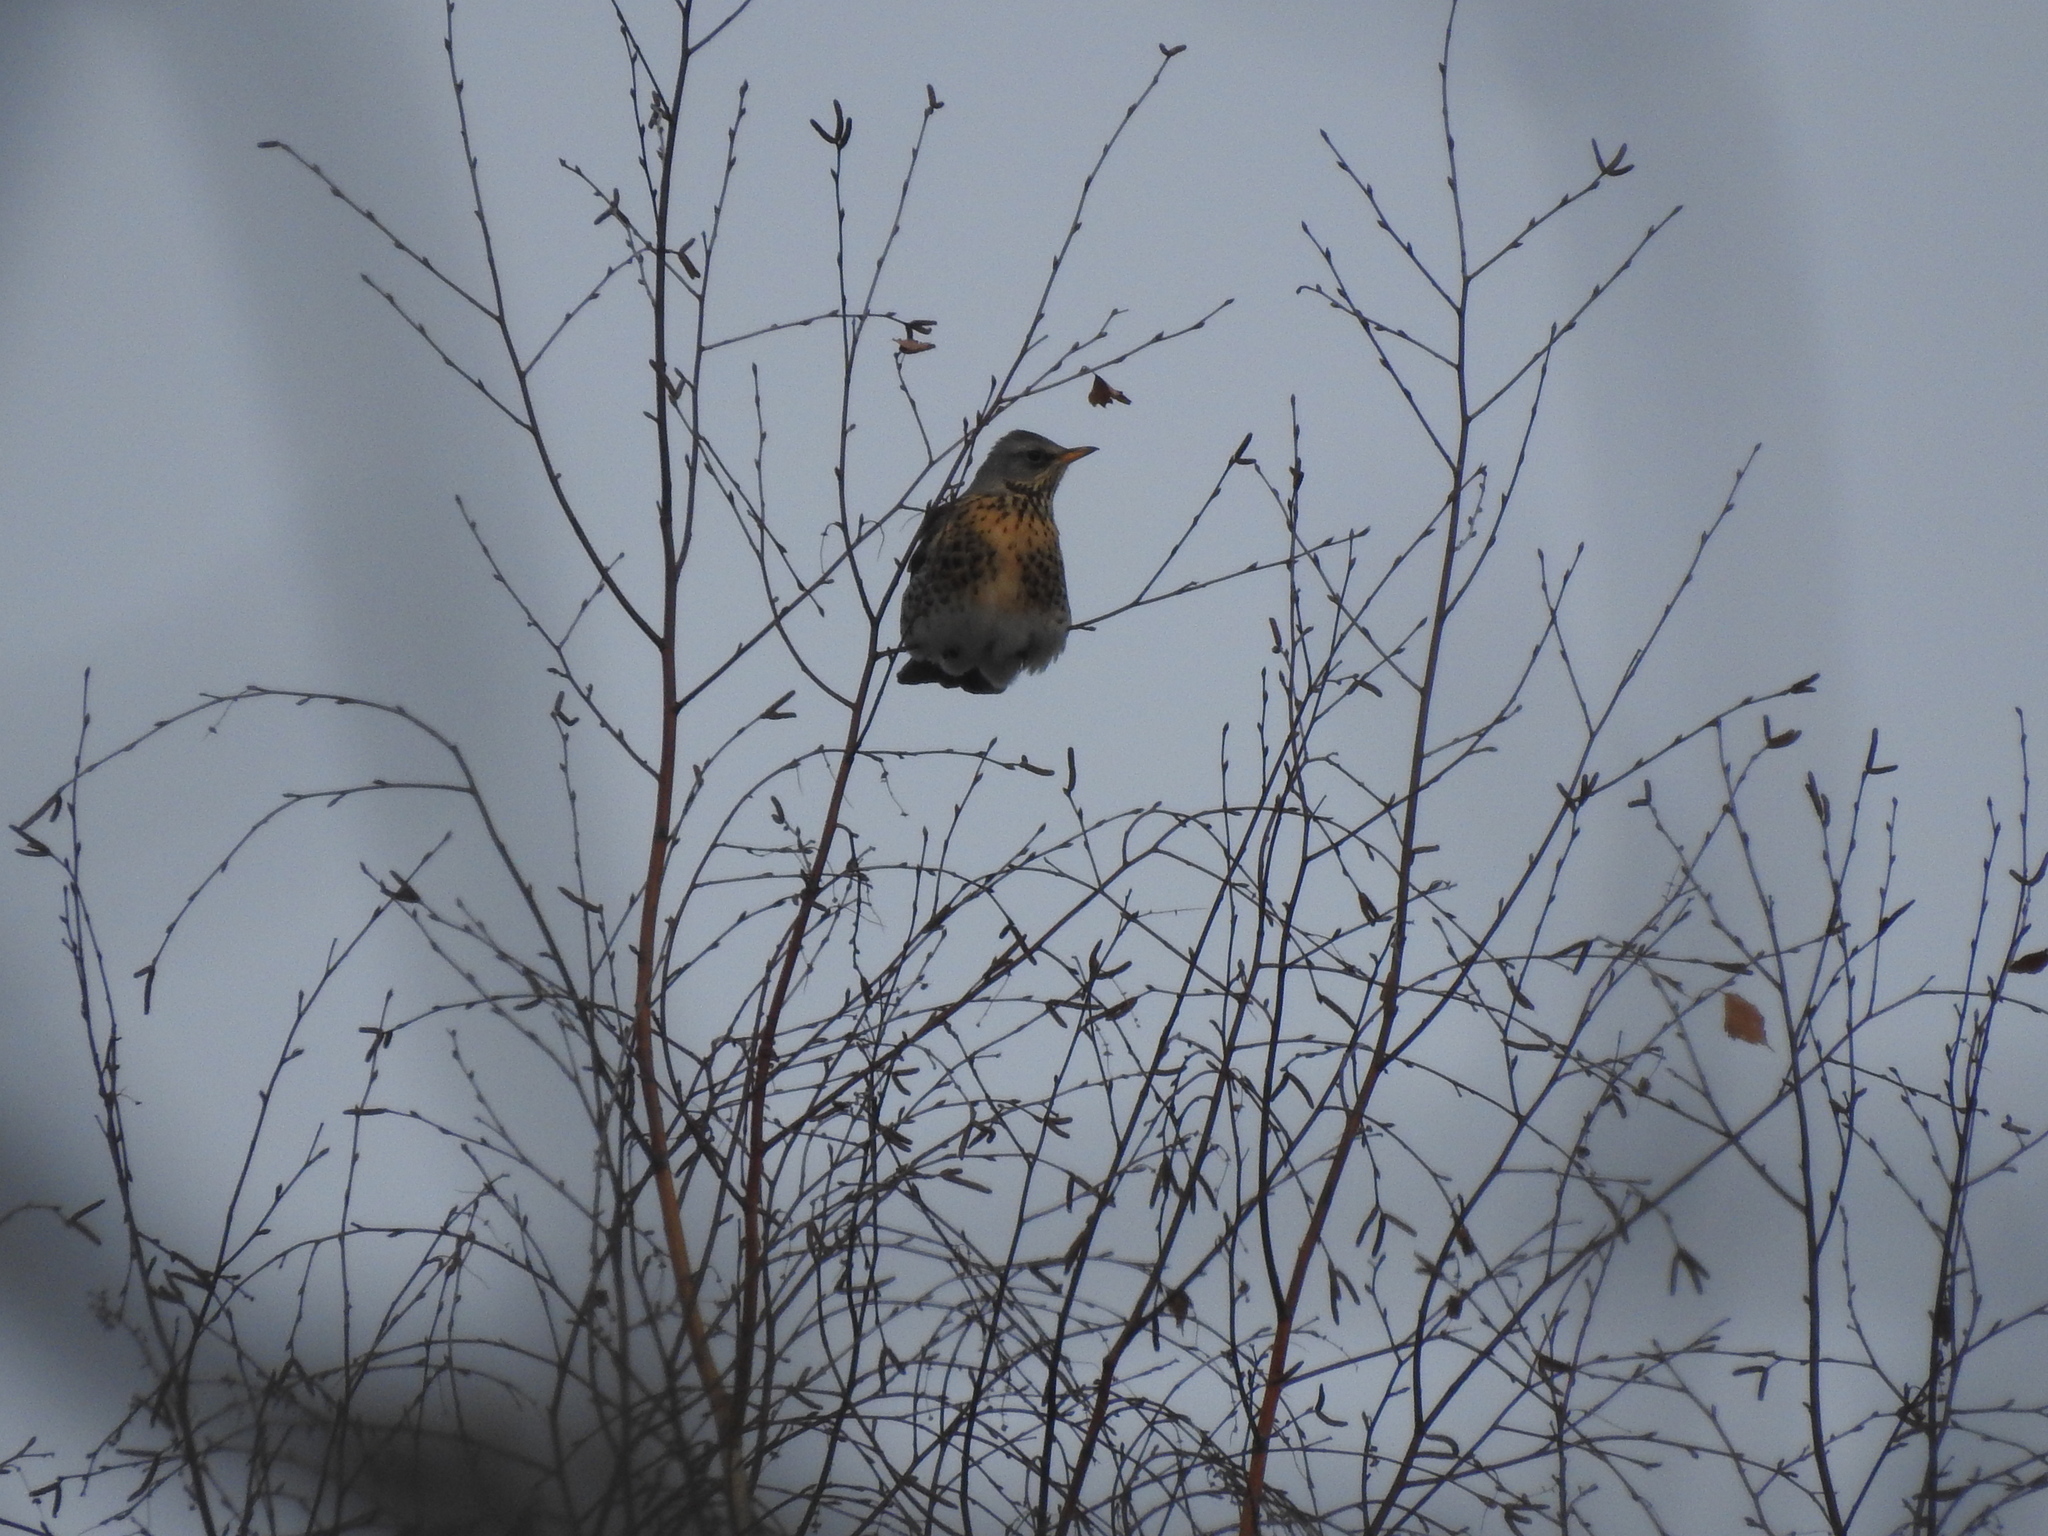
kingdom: Animalia
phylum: Chordata
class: Aves
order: Passeriformes
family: Turdidae
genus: Turdus
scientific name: Turdus pilaris
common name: Fieldfare
